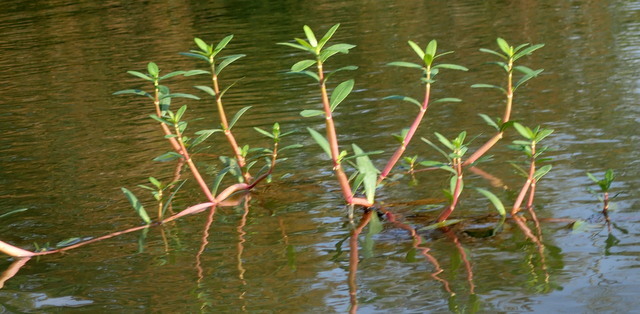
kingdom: Plantae
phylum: Tracheophyta
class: Magnoliopsida
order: Caryophyllales
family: Amaranthaceae
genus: Alternanthera
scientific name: Alternanthera philoxeroides
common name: Alligatorweed
